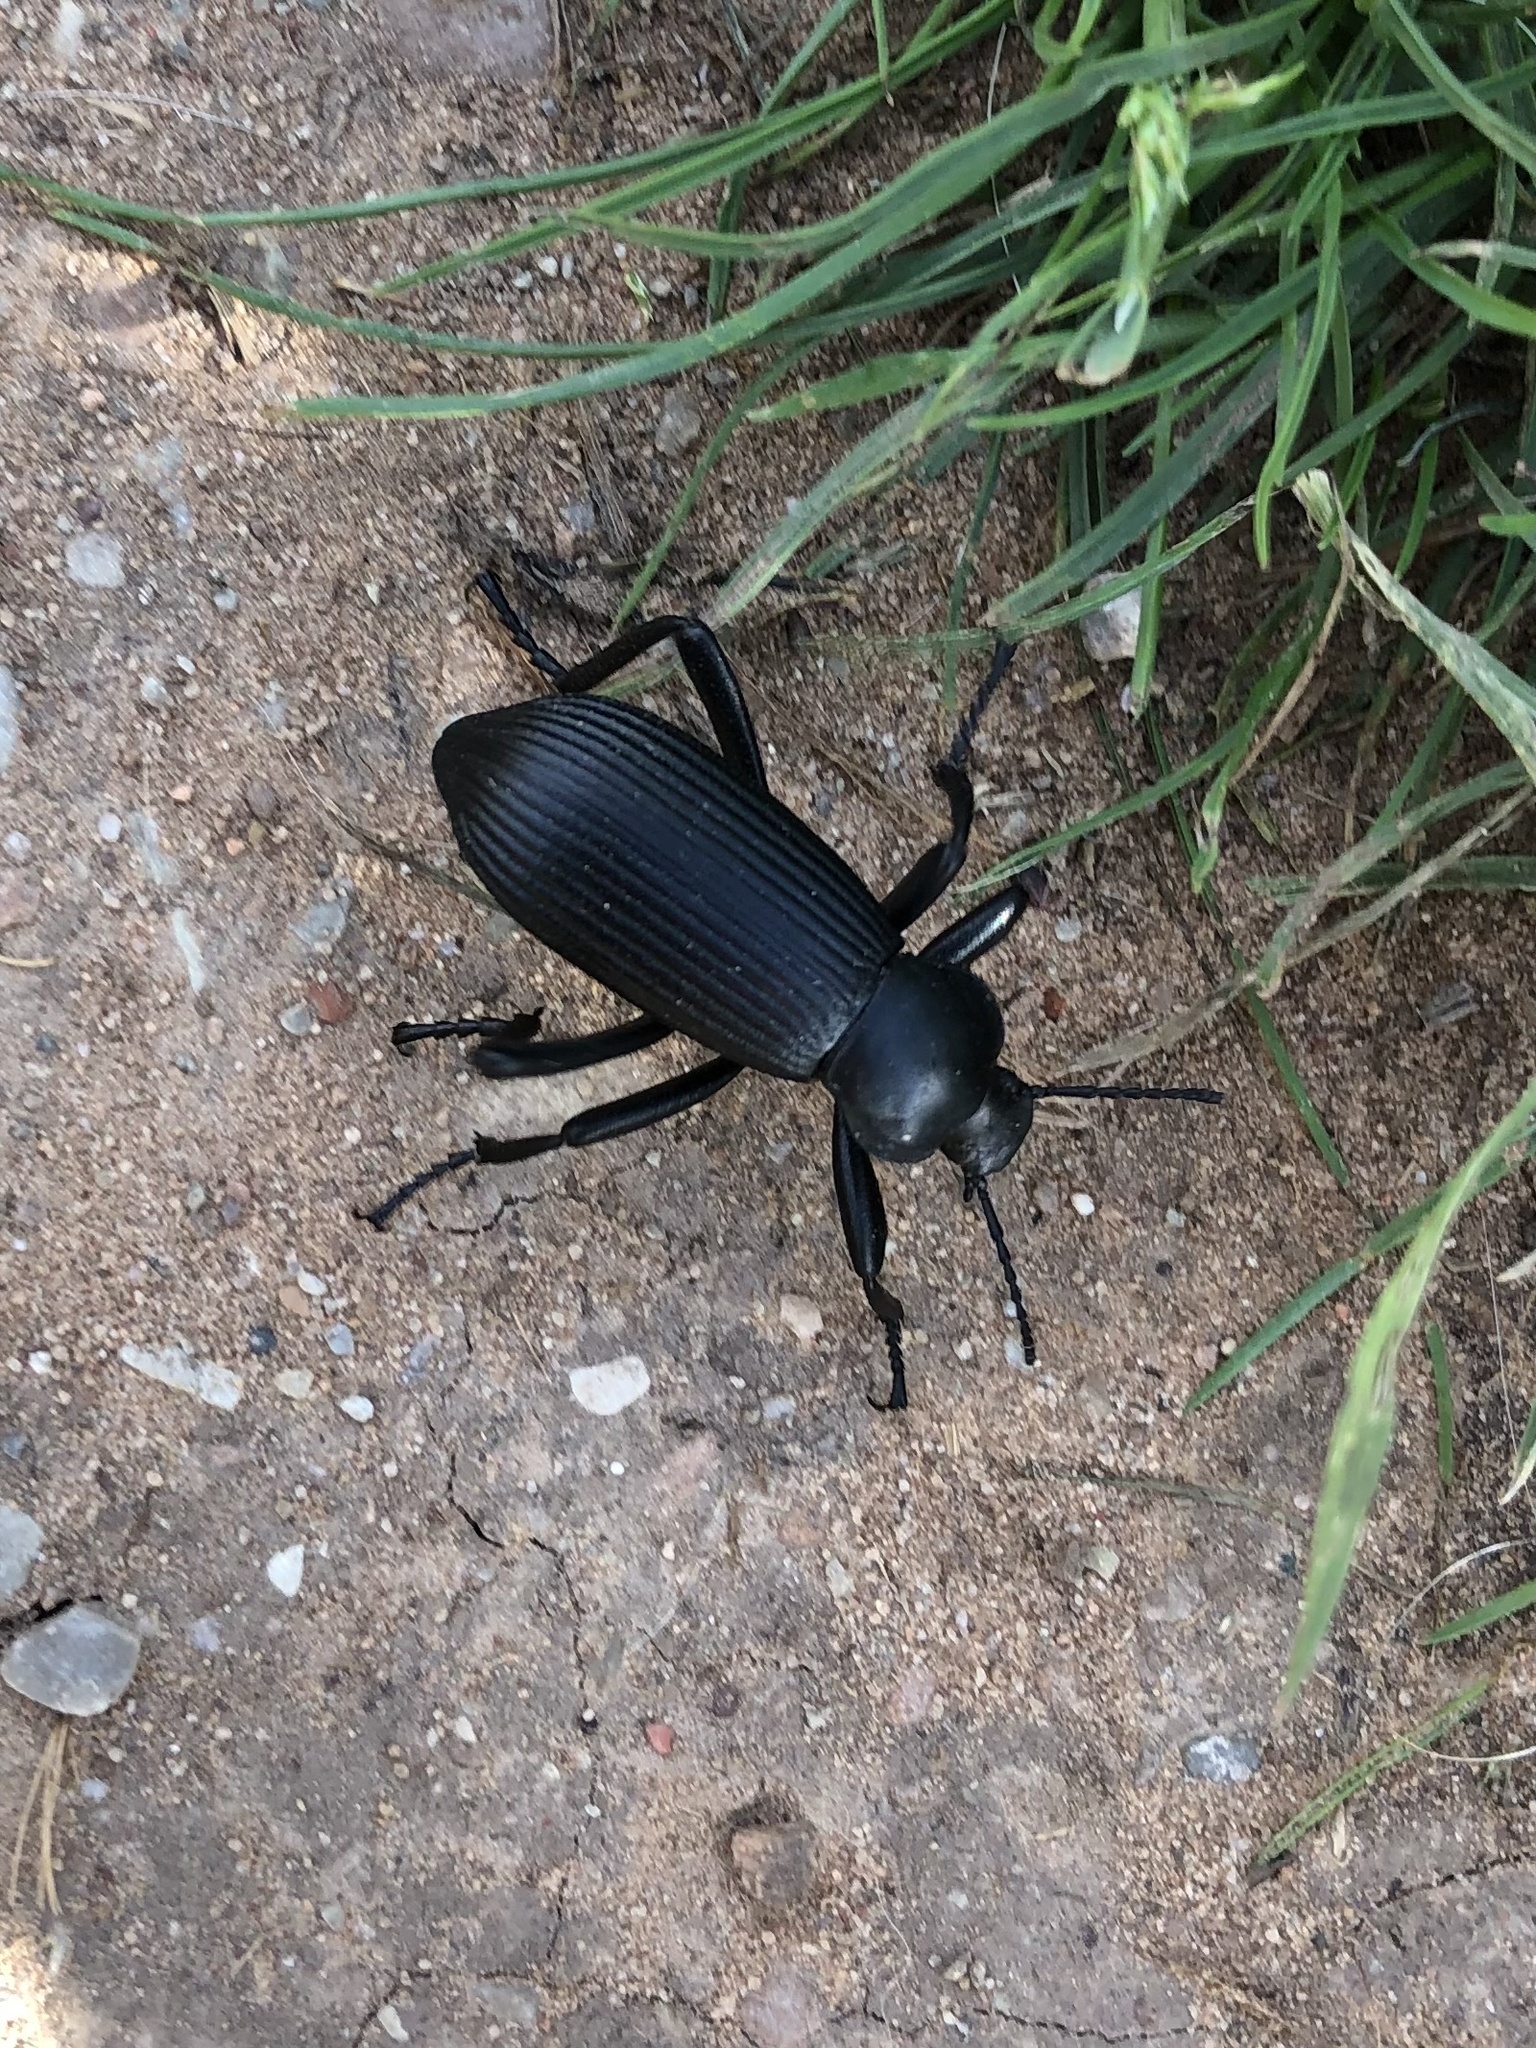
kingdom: Animalia
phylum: Arthropoda
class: Insecta
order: Coleoptera
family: Tenebrionidae
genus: Eleodes
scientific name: Eleodes obscura
